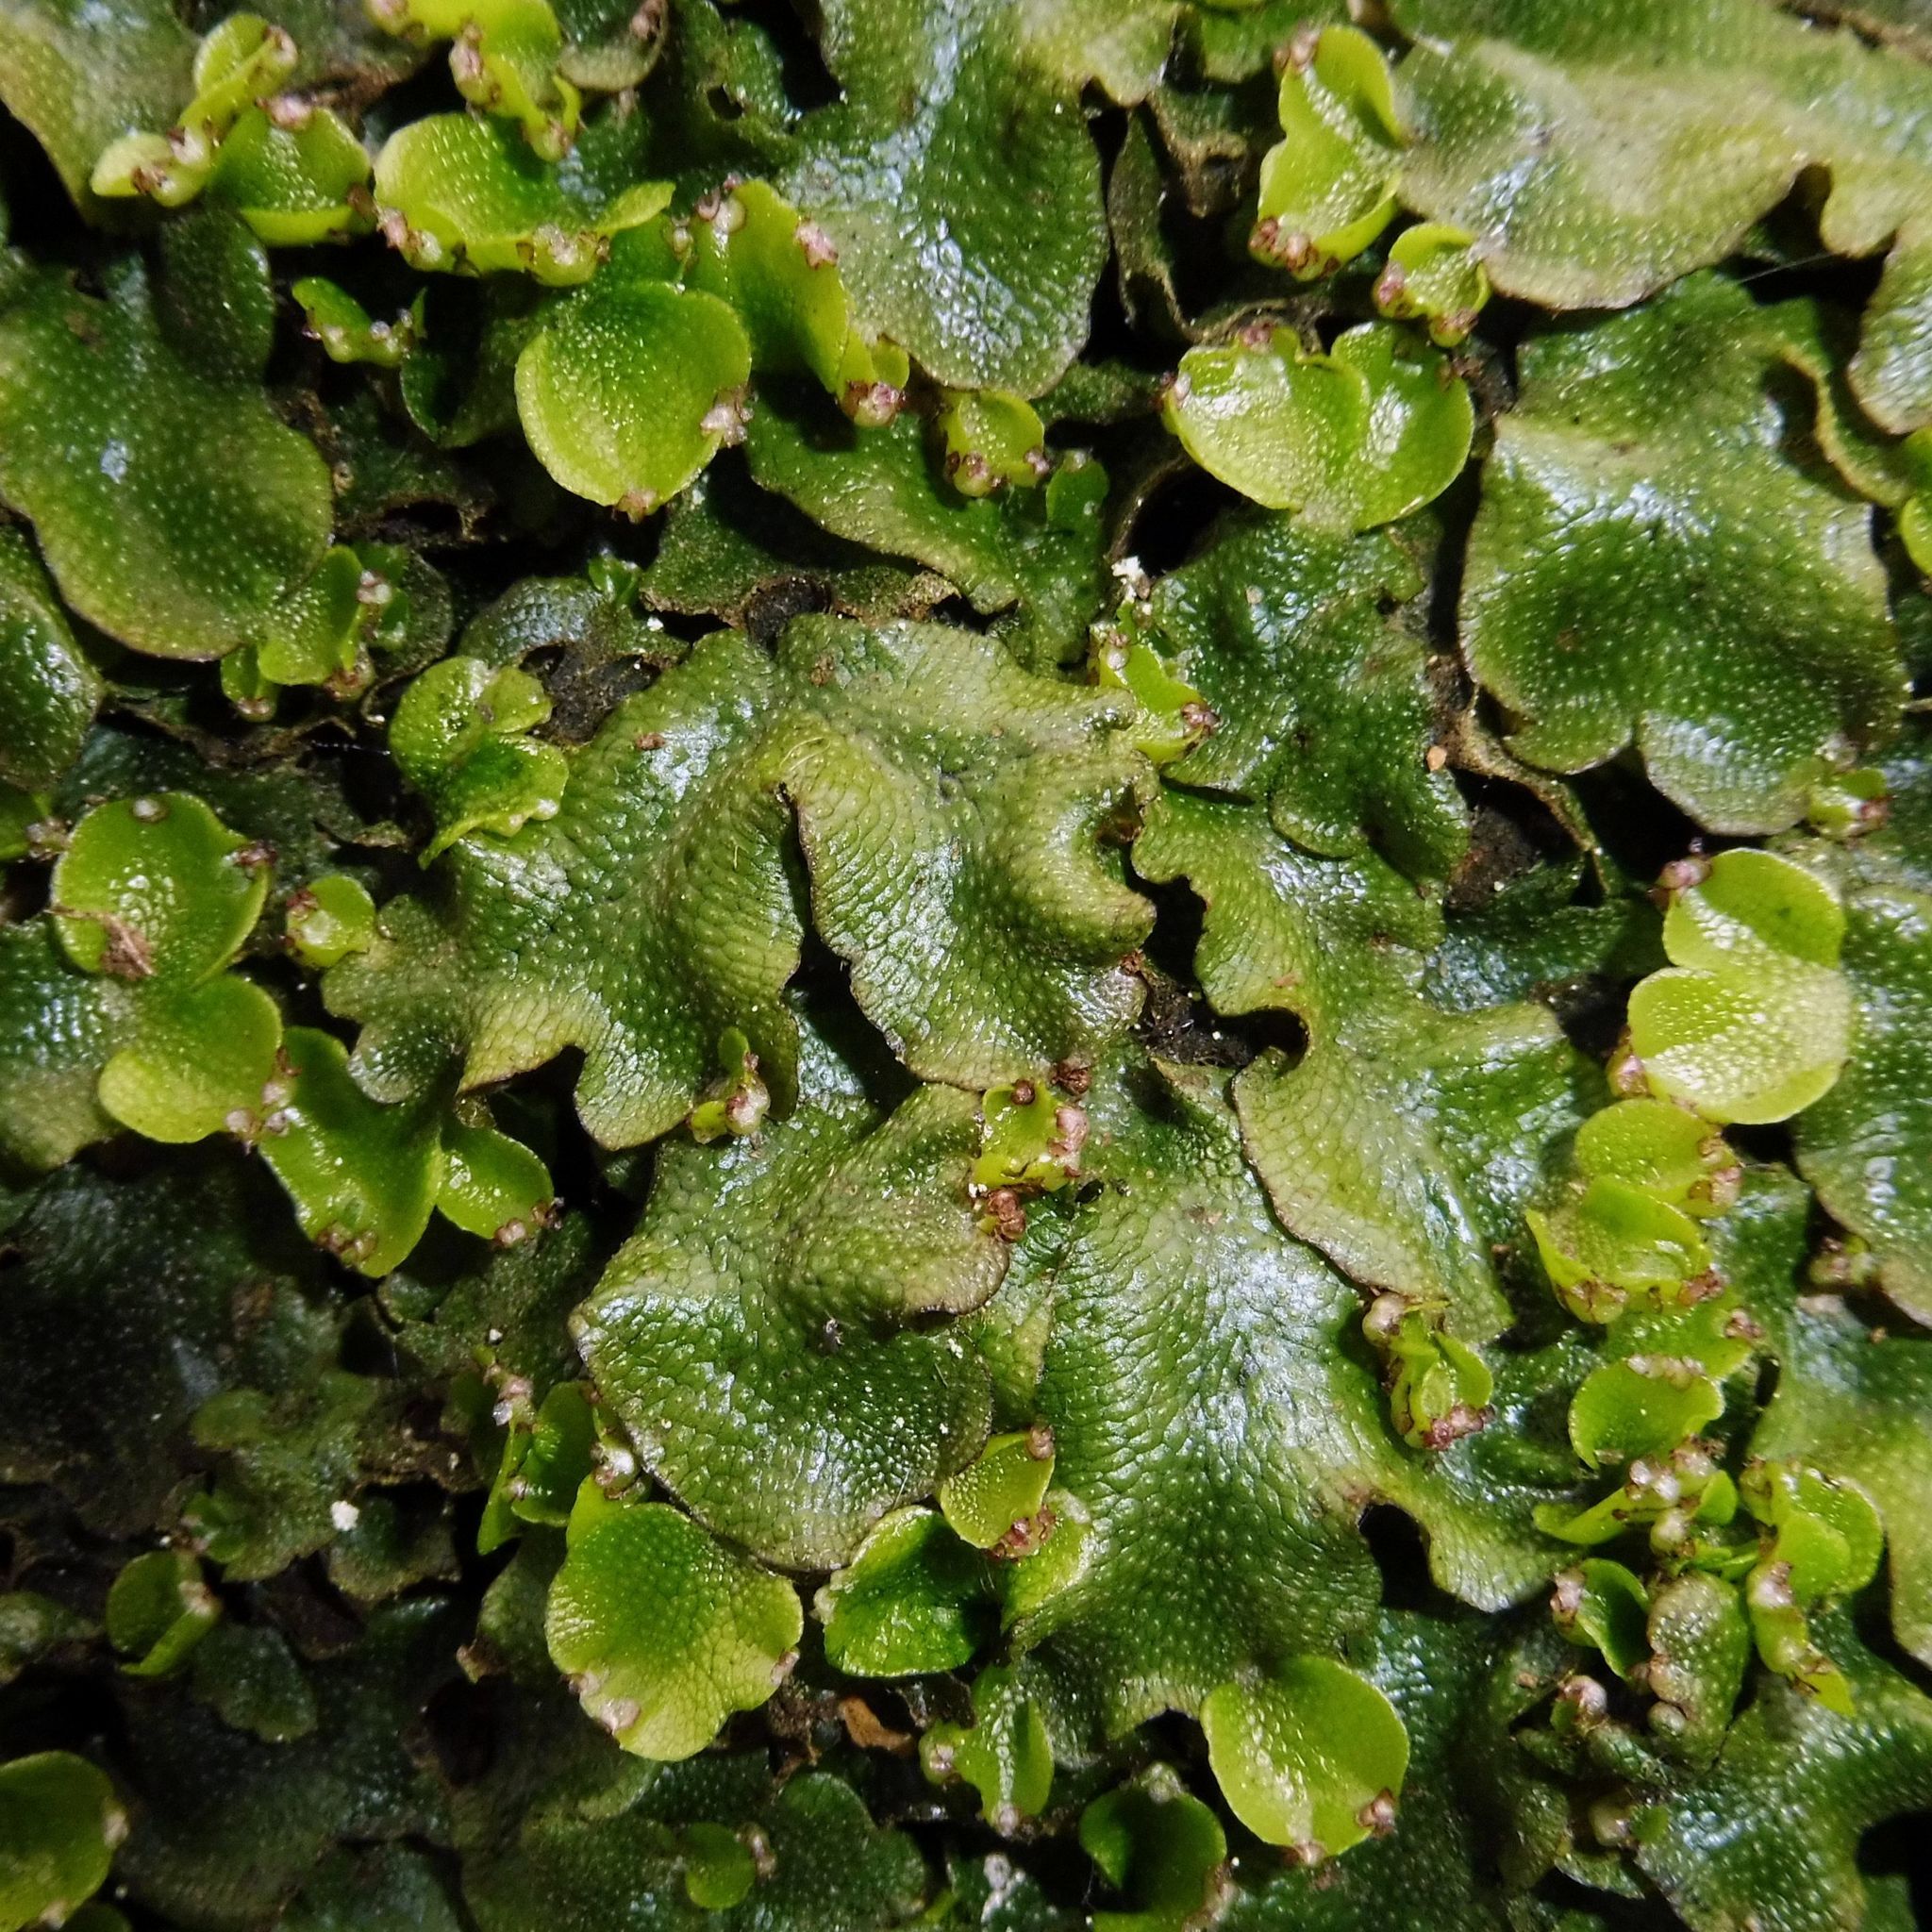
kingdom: Plantae
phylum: Marchantiophyta
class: Marchantiopsida
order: Marchantiales
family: Conocephalaceae
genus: Conocephalum
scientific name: Conocephalum conicum
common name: Great scented liverwort
